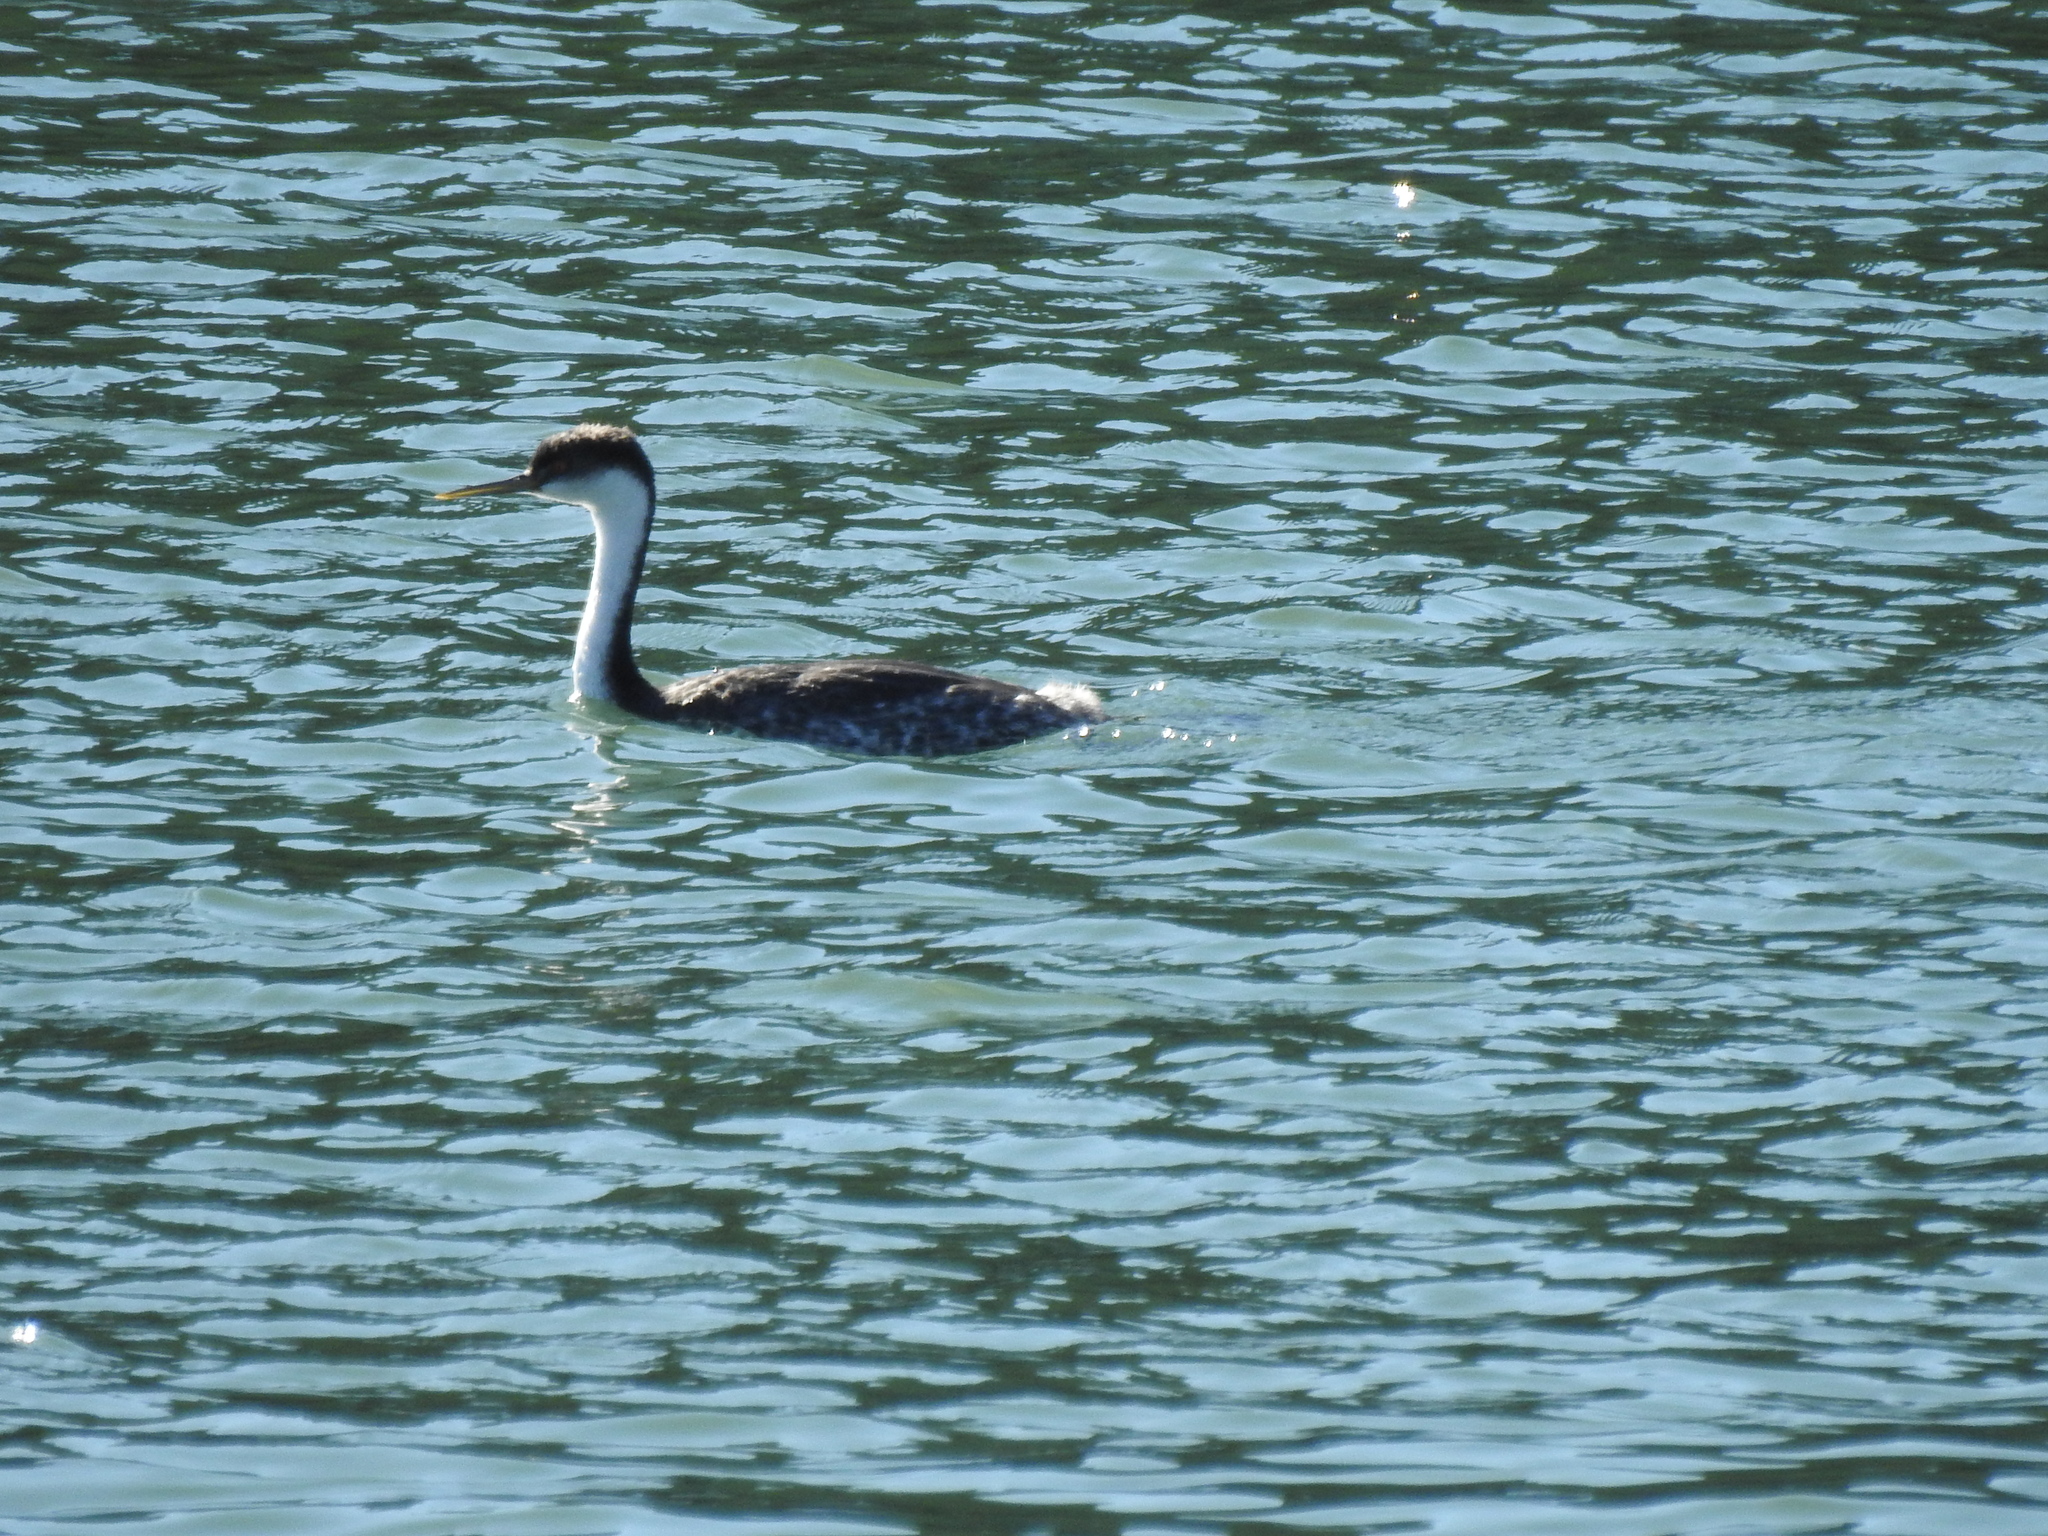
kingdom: Animalia
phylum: Chordata
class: Aves
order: Podicipediformes
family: Podicipedidae
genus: Aechmophorus
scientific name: Aechmophorus occidentalis
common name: Western grebe
